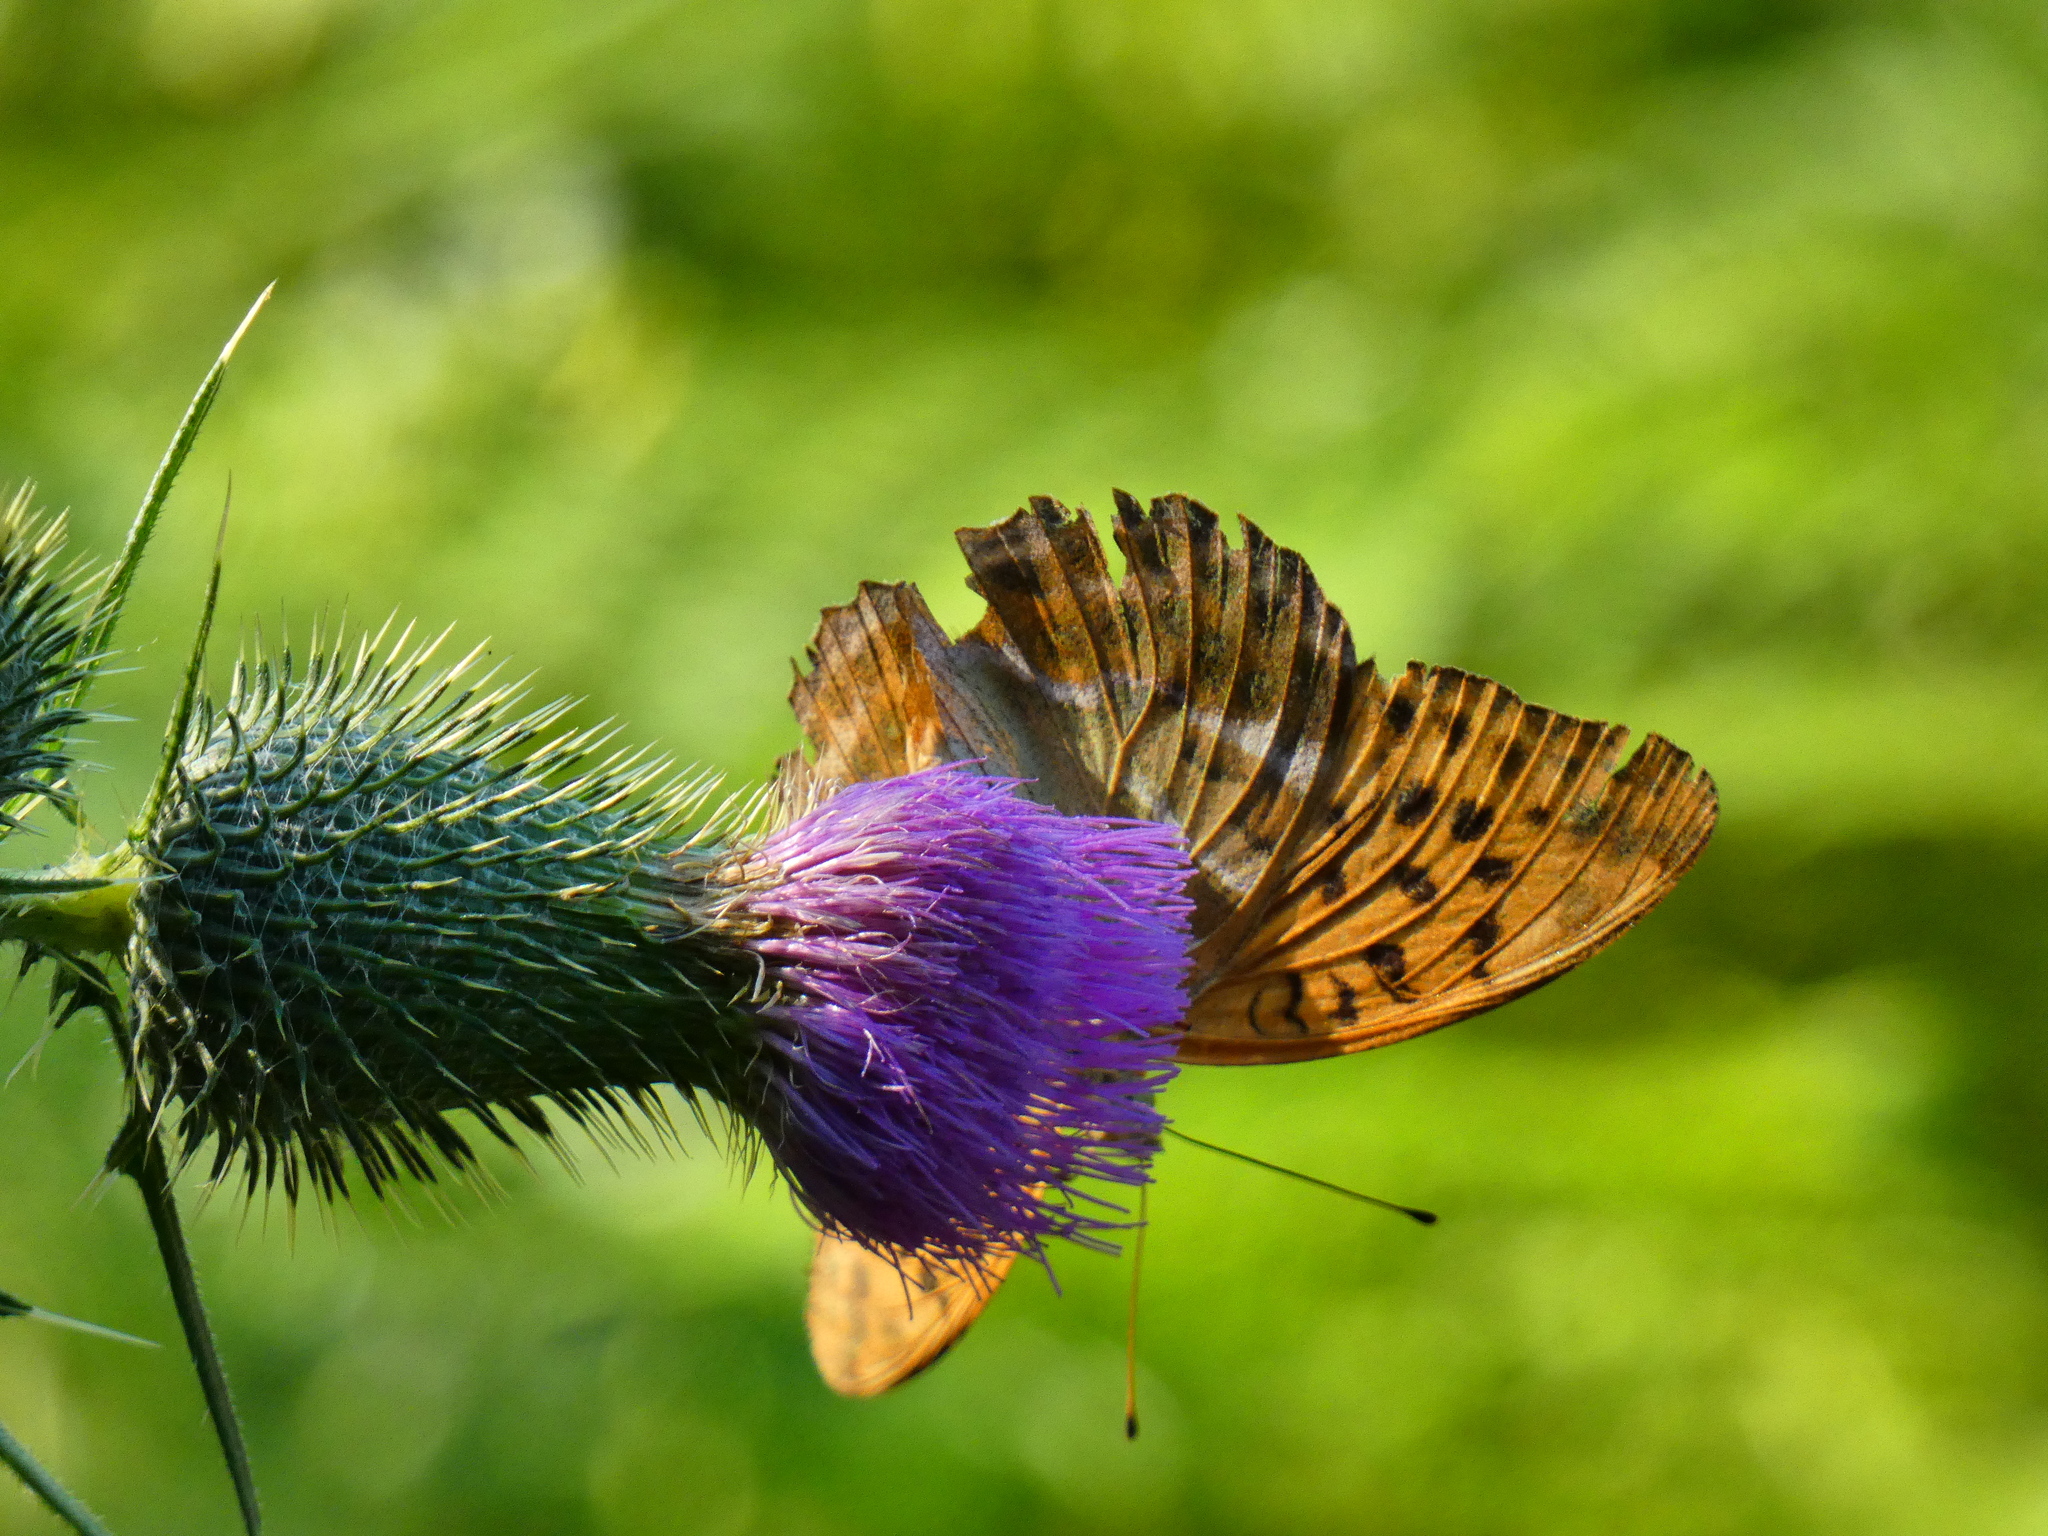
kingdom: Animalia
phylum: Arthropoda
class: Insecta
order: Lepidoptera
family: Nymphalidae
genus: Argynnis
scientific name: Argynnis paphia
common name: Silver-washed fritillary
